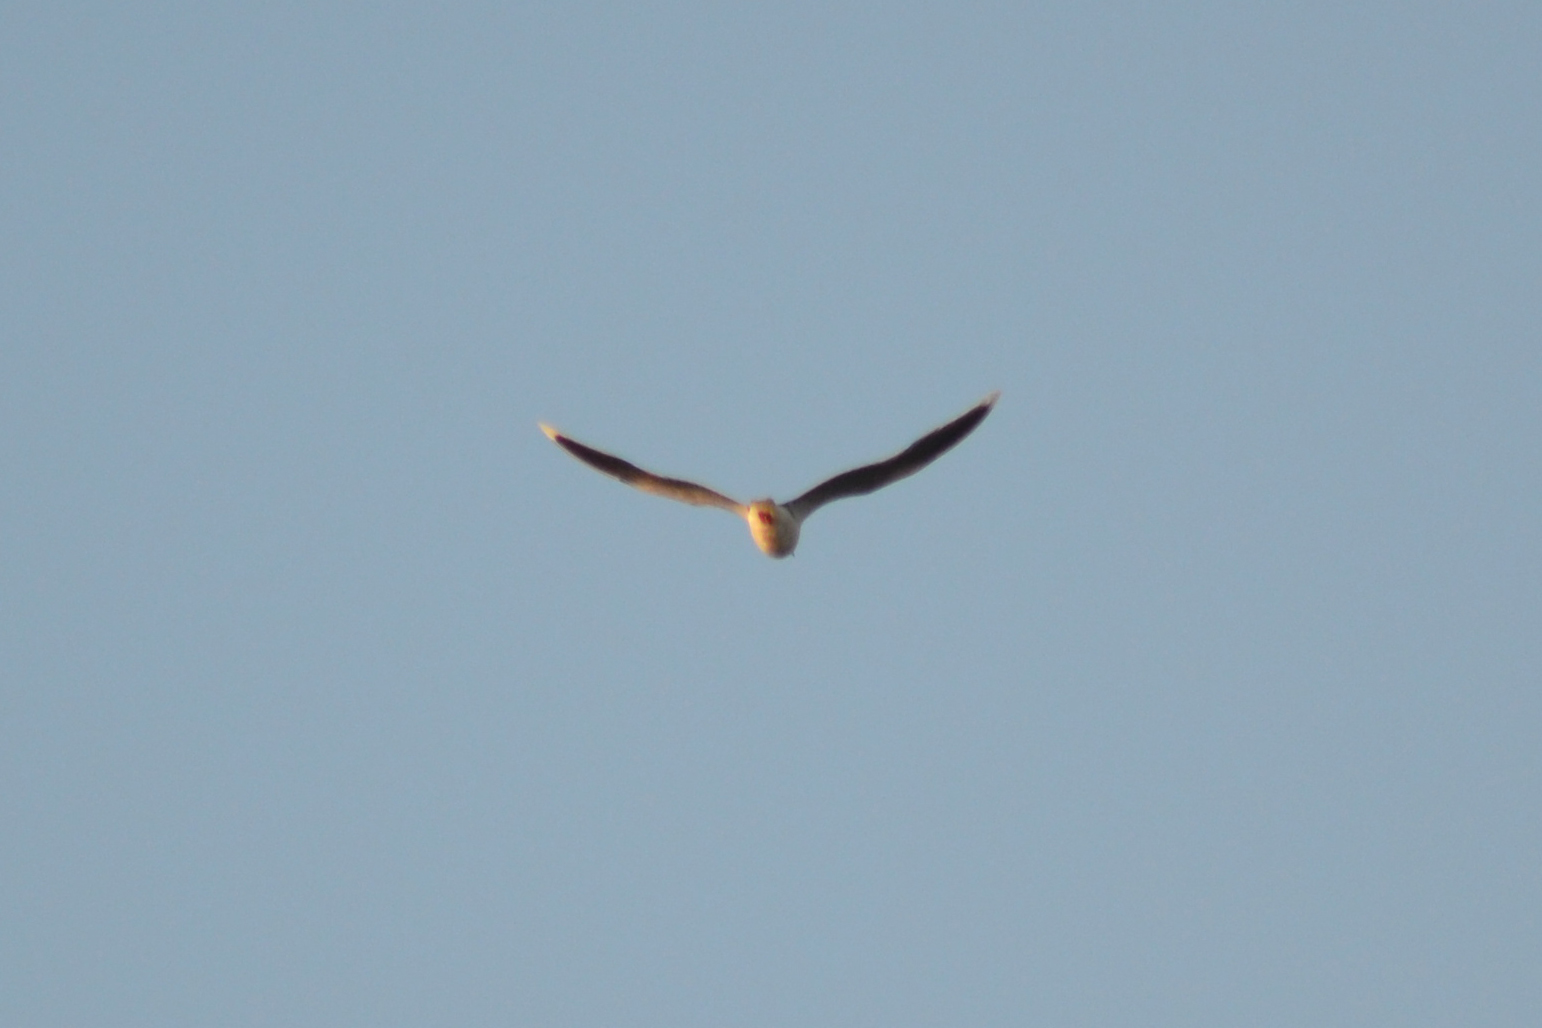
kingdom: Animalia
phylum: Chordata
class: Aves
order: Charadriiformes
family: Laridae
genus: Hydrocoloeus
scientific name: Hydrocoloeus minutus
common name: Little gull
